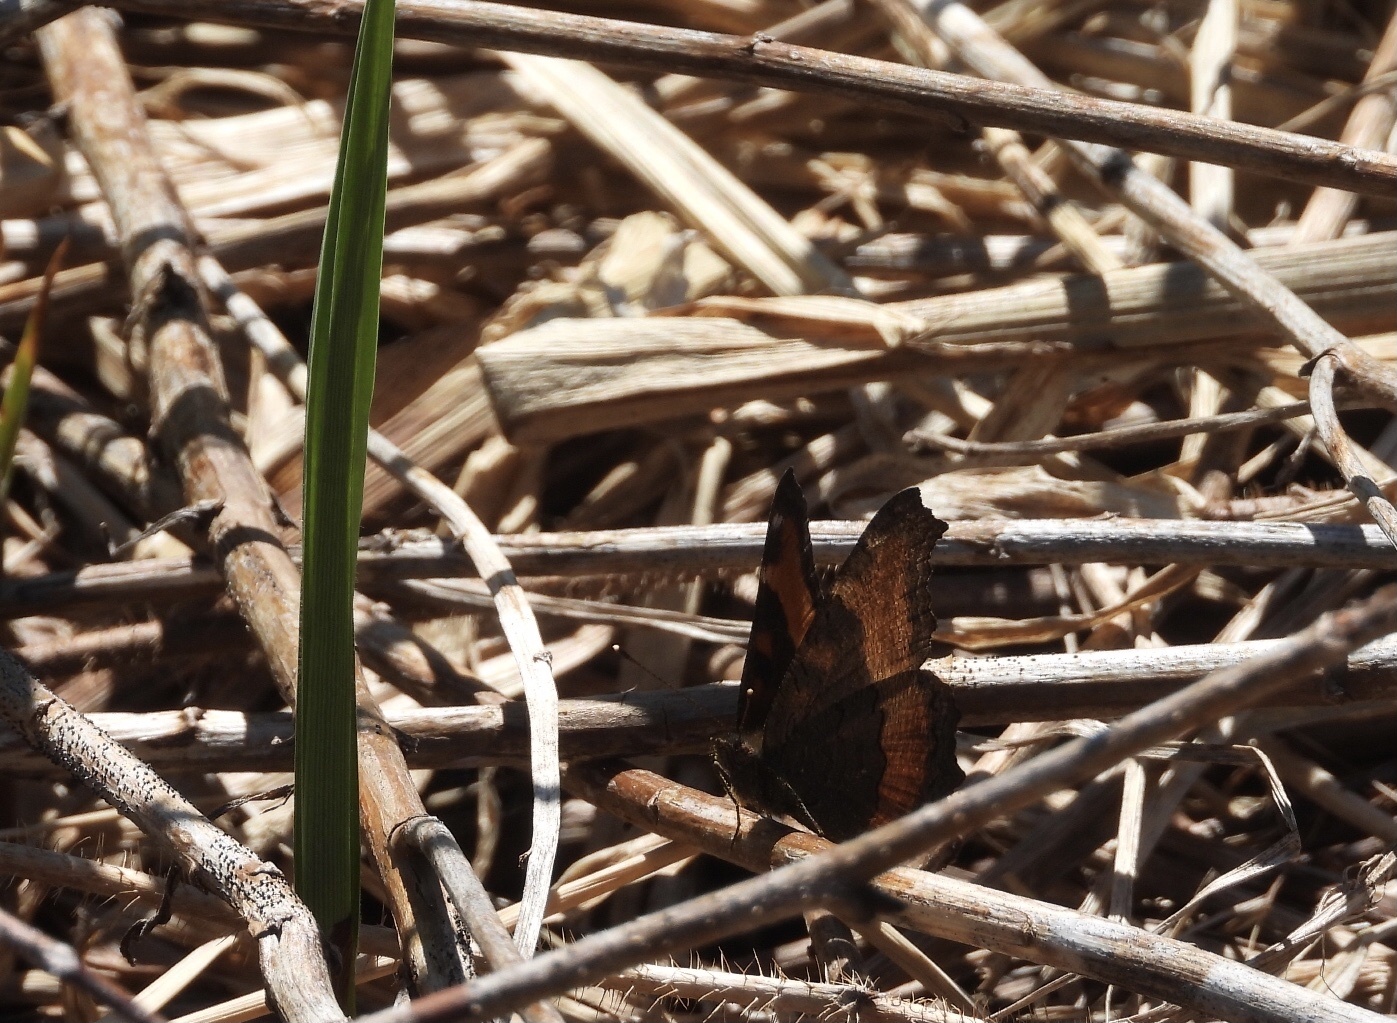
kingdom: Animalia
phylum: Arthropoda
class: Insecta
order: Lepidoptera
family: Nymphalidae
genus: Aglais
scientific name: Aglais milberti
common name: Milbert's tortoiseshell
